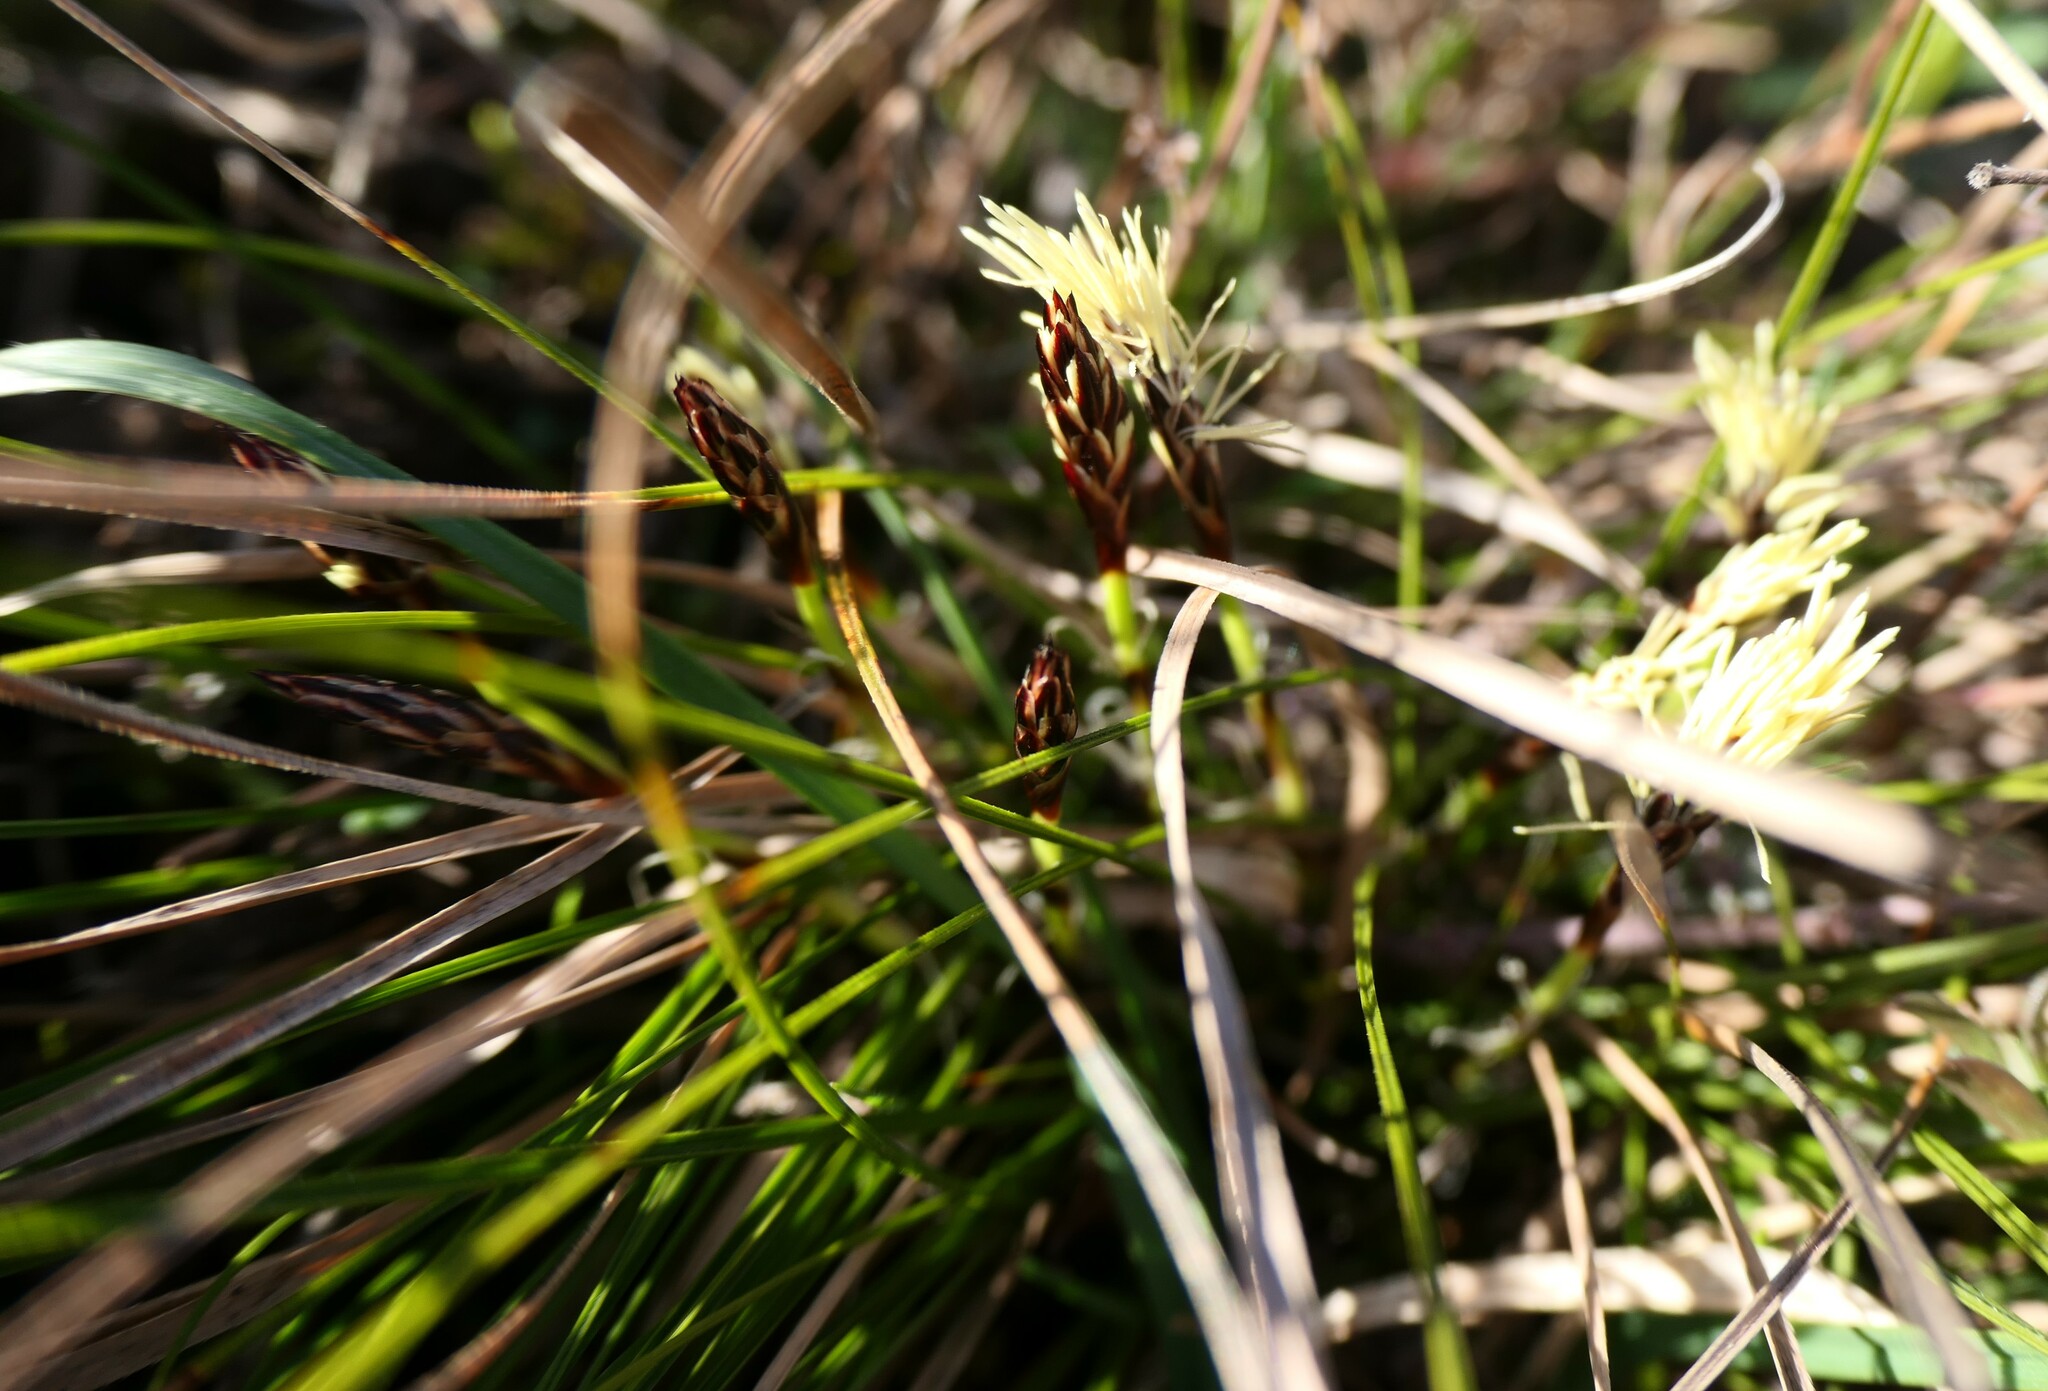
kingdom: Plantae
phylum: Tracheophyta
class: Liliopsida
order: Poales
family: Cyperaceae
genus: Carex
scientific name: Carex humilis
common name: Dwarf sedge
